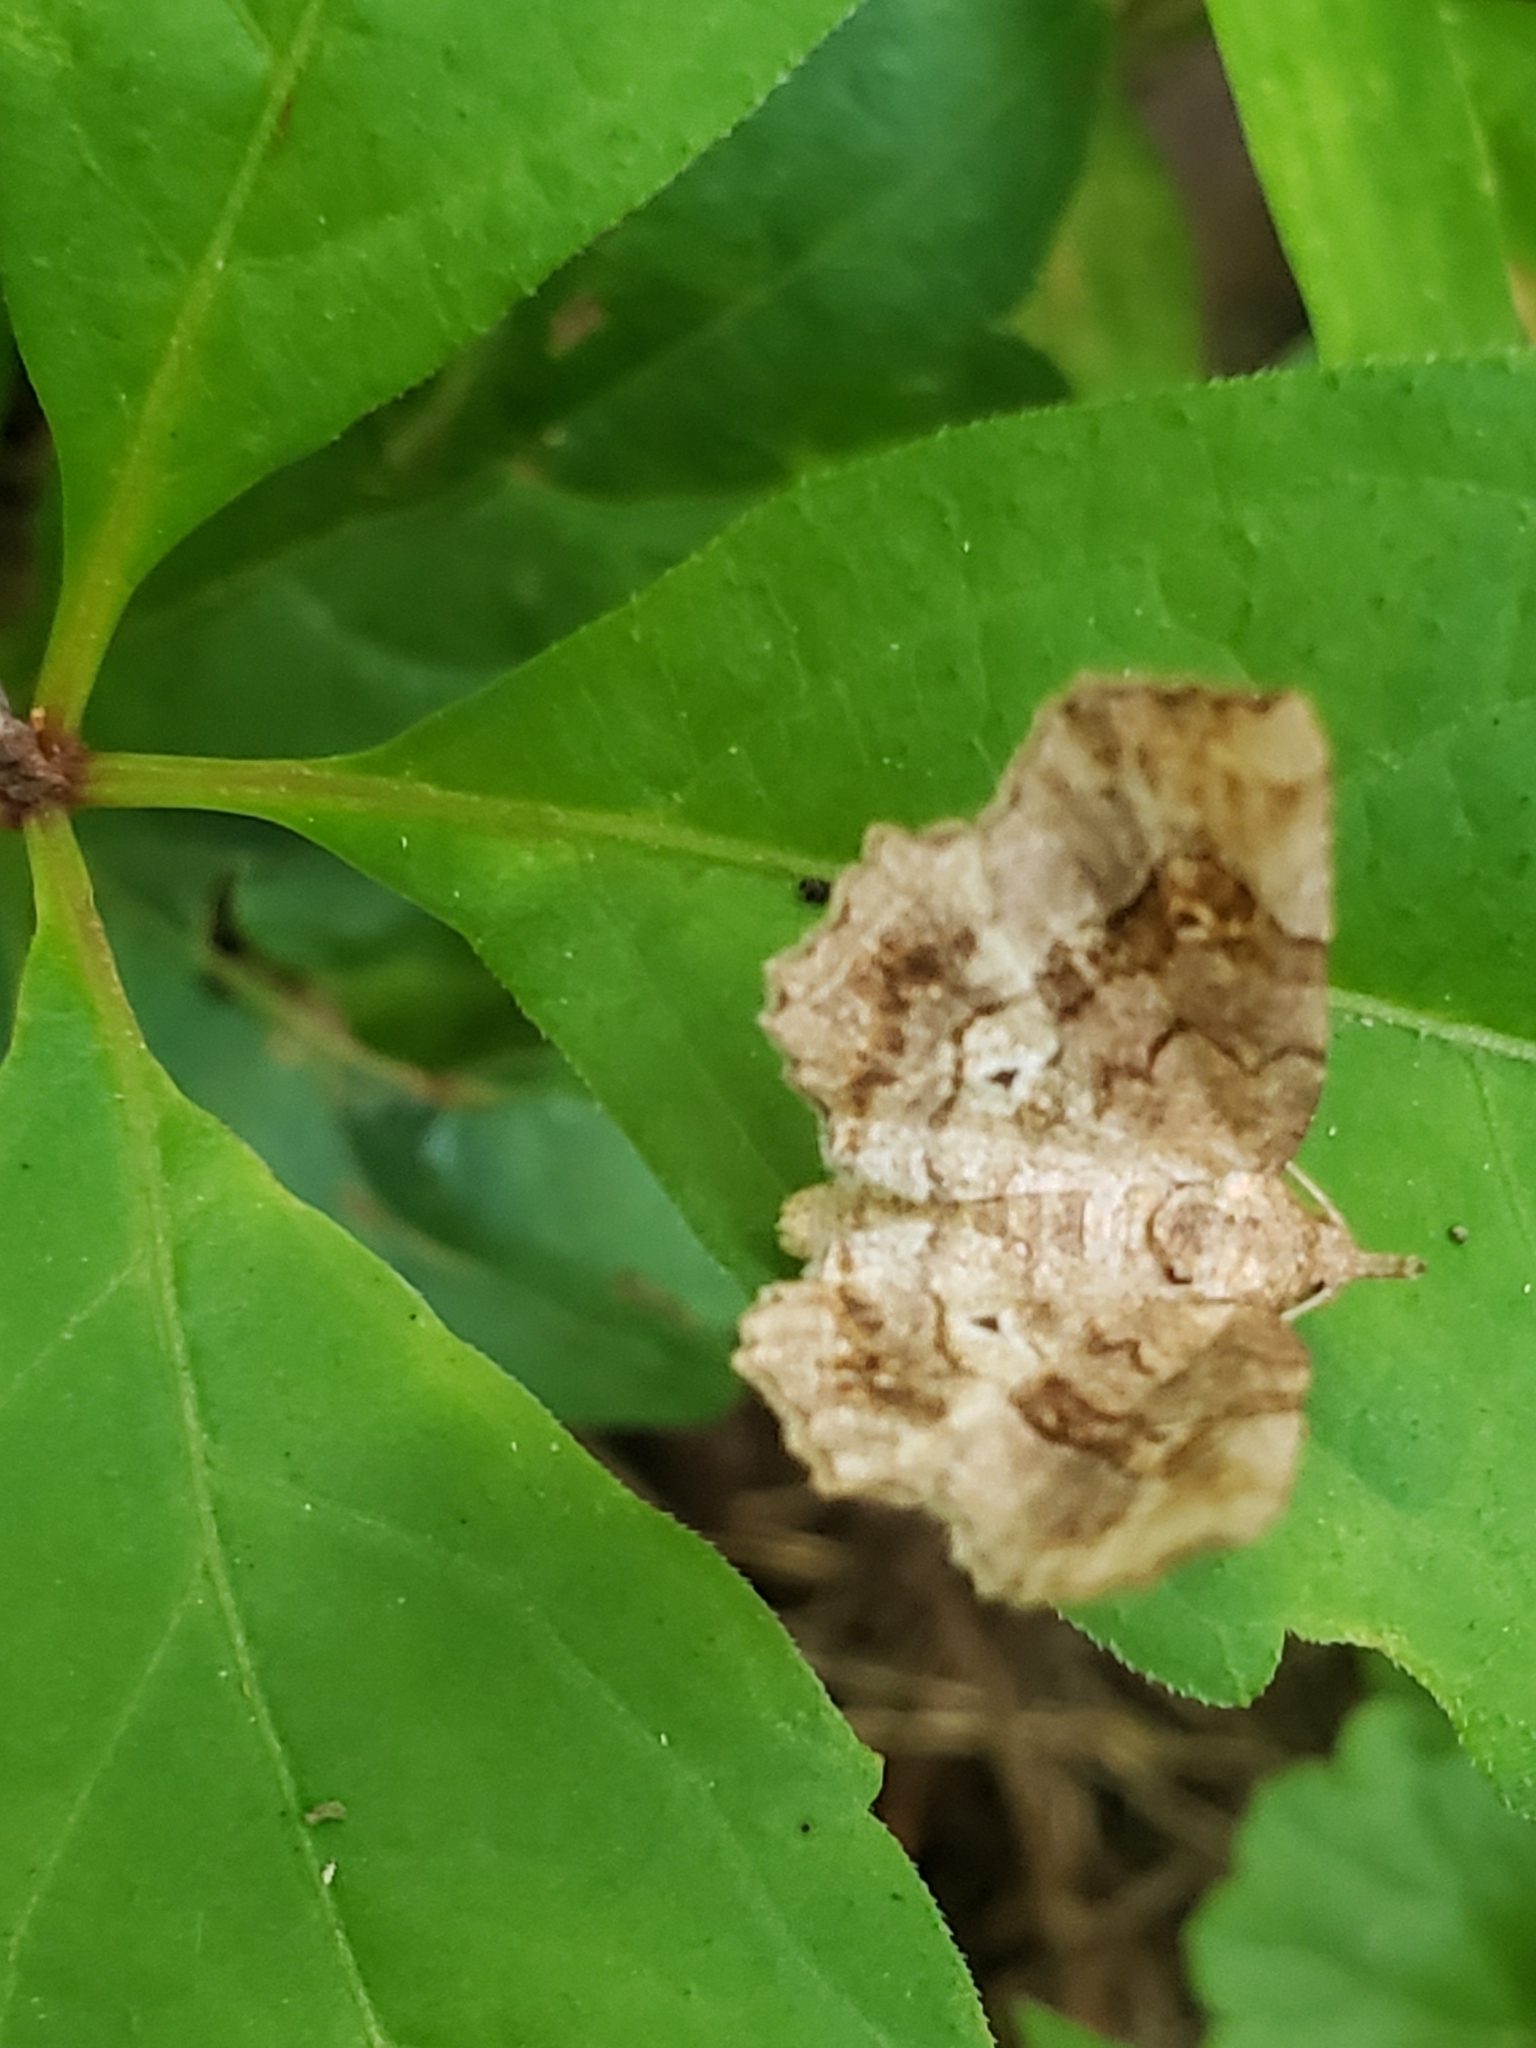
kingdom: Animalia
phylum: Arthropoda
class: Insecta
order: Lepidoptera
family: Erebidae
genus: Pangrapta
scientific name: Pangrapta decoralis
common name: Decorated owlet
